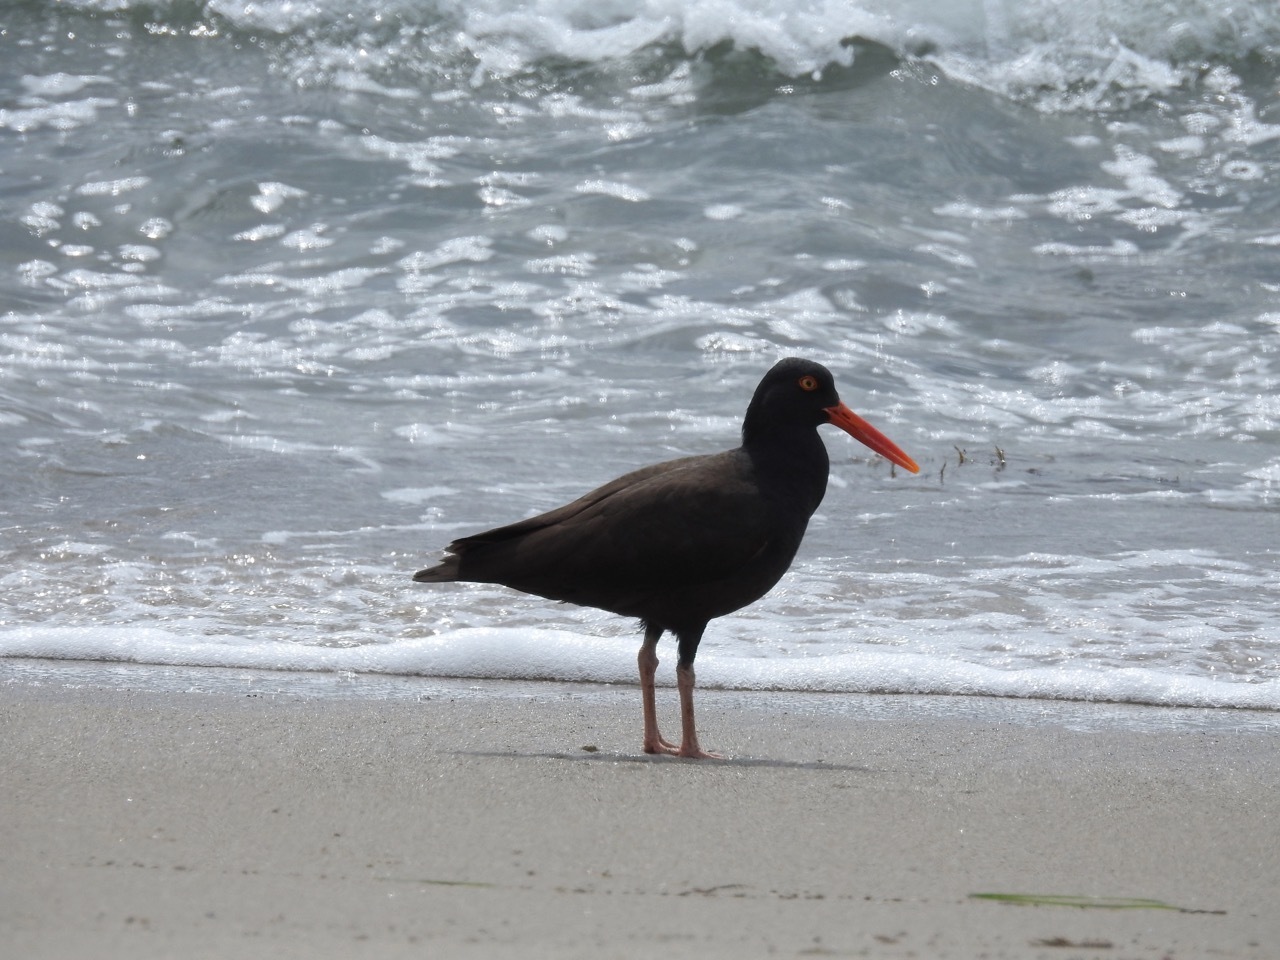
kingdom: Animalia
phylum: Chordata
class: Aves
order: Charadriiformes
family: Haematopodidae
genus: Haematopus
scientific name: Haematopus bachmani
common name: Black oystercatcher
